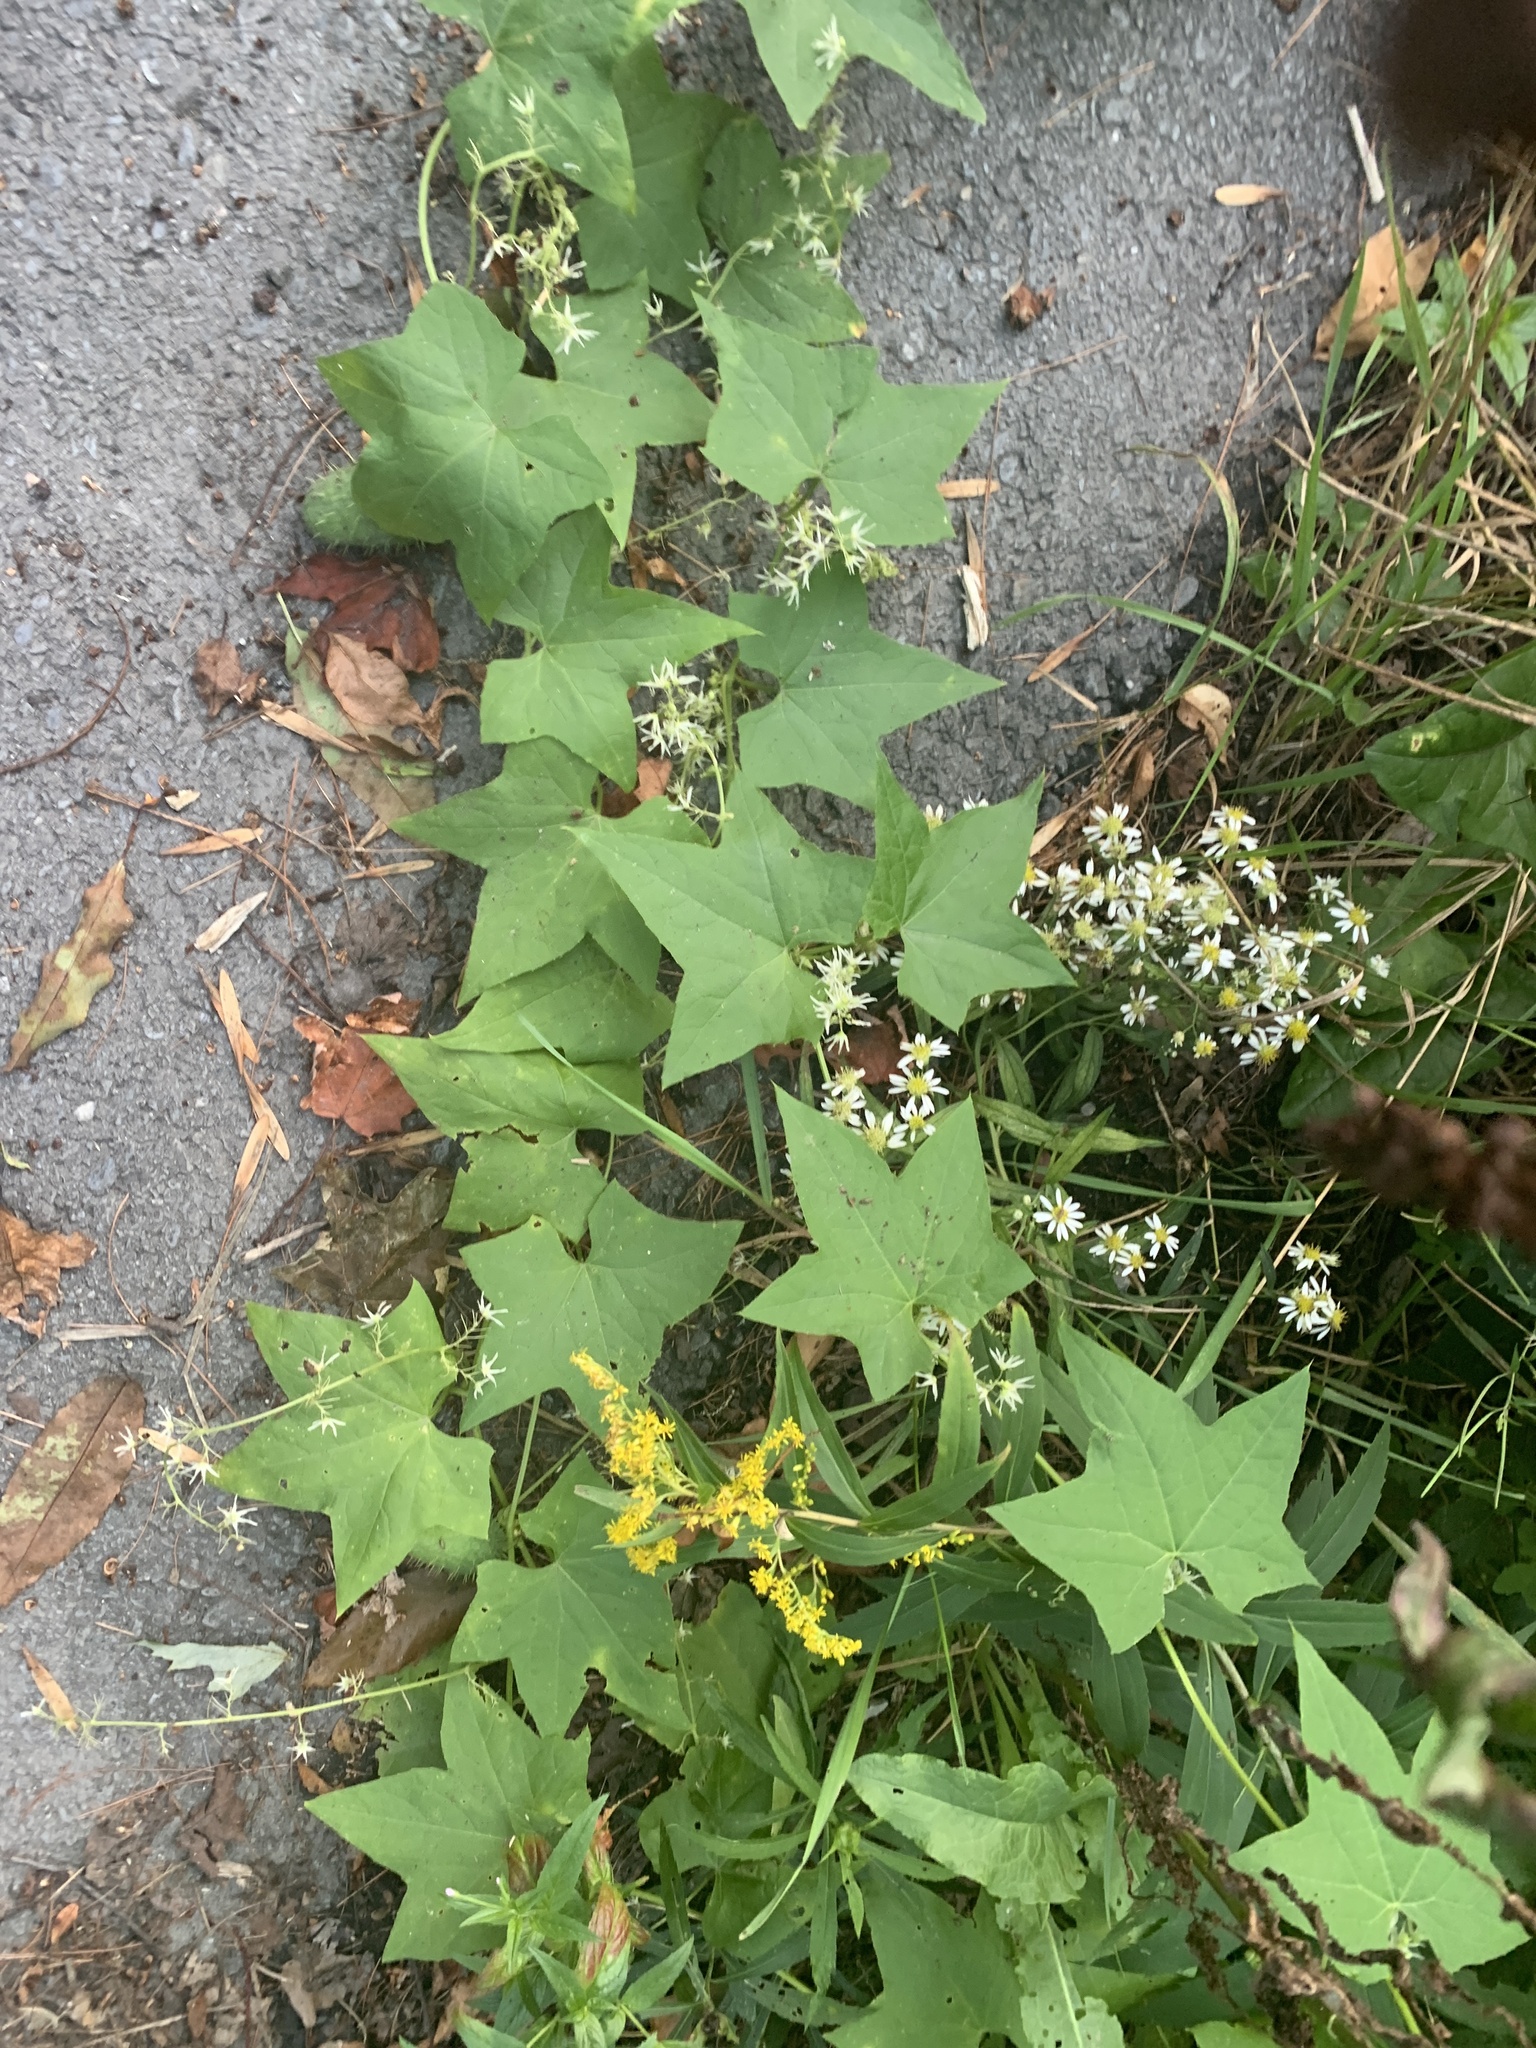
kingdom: Plantae
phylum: Tracheophyta
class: Magnoliopsida
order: Cucurbitales
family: Cucurbitaceae
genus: Echinocystis
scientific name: Echinocystis lobata
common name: Wild cucumber
